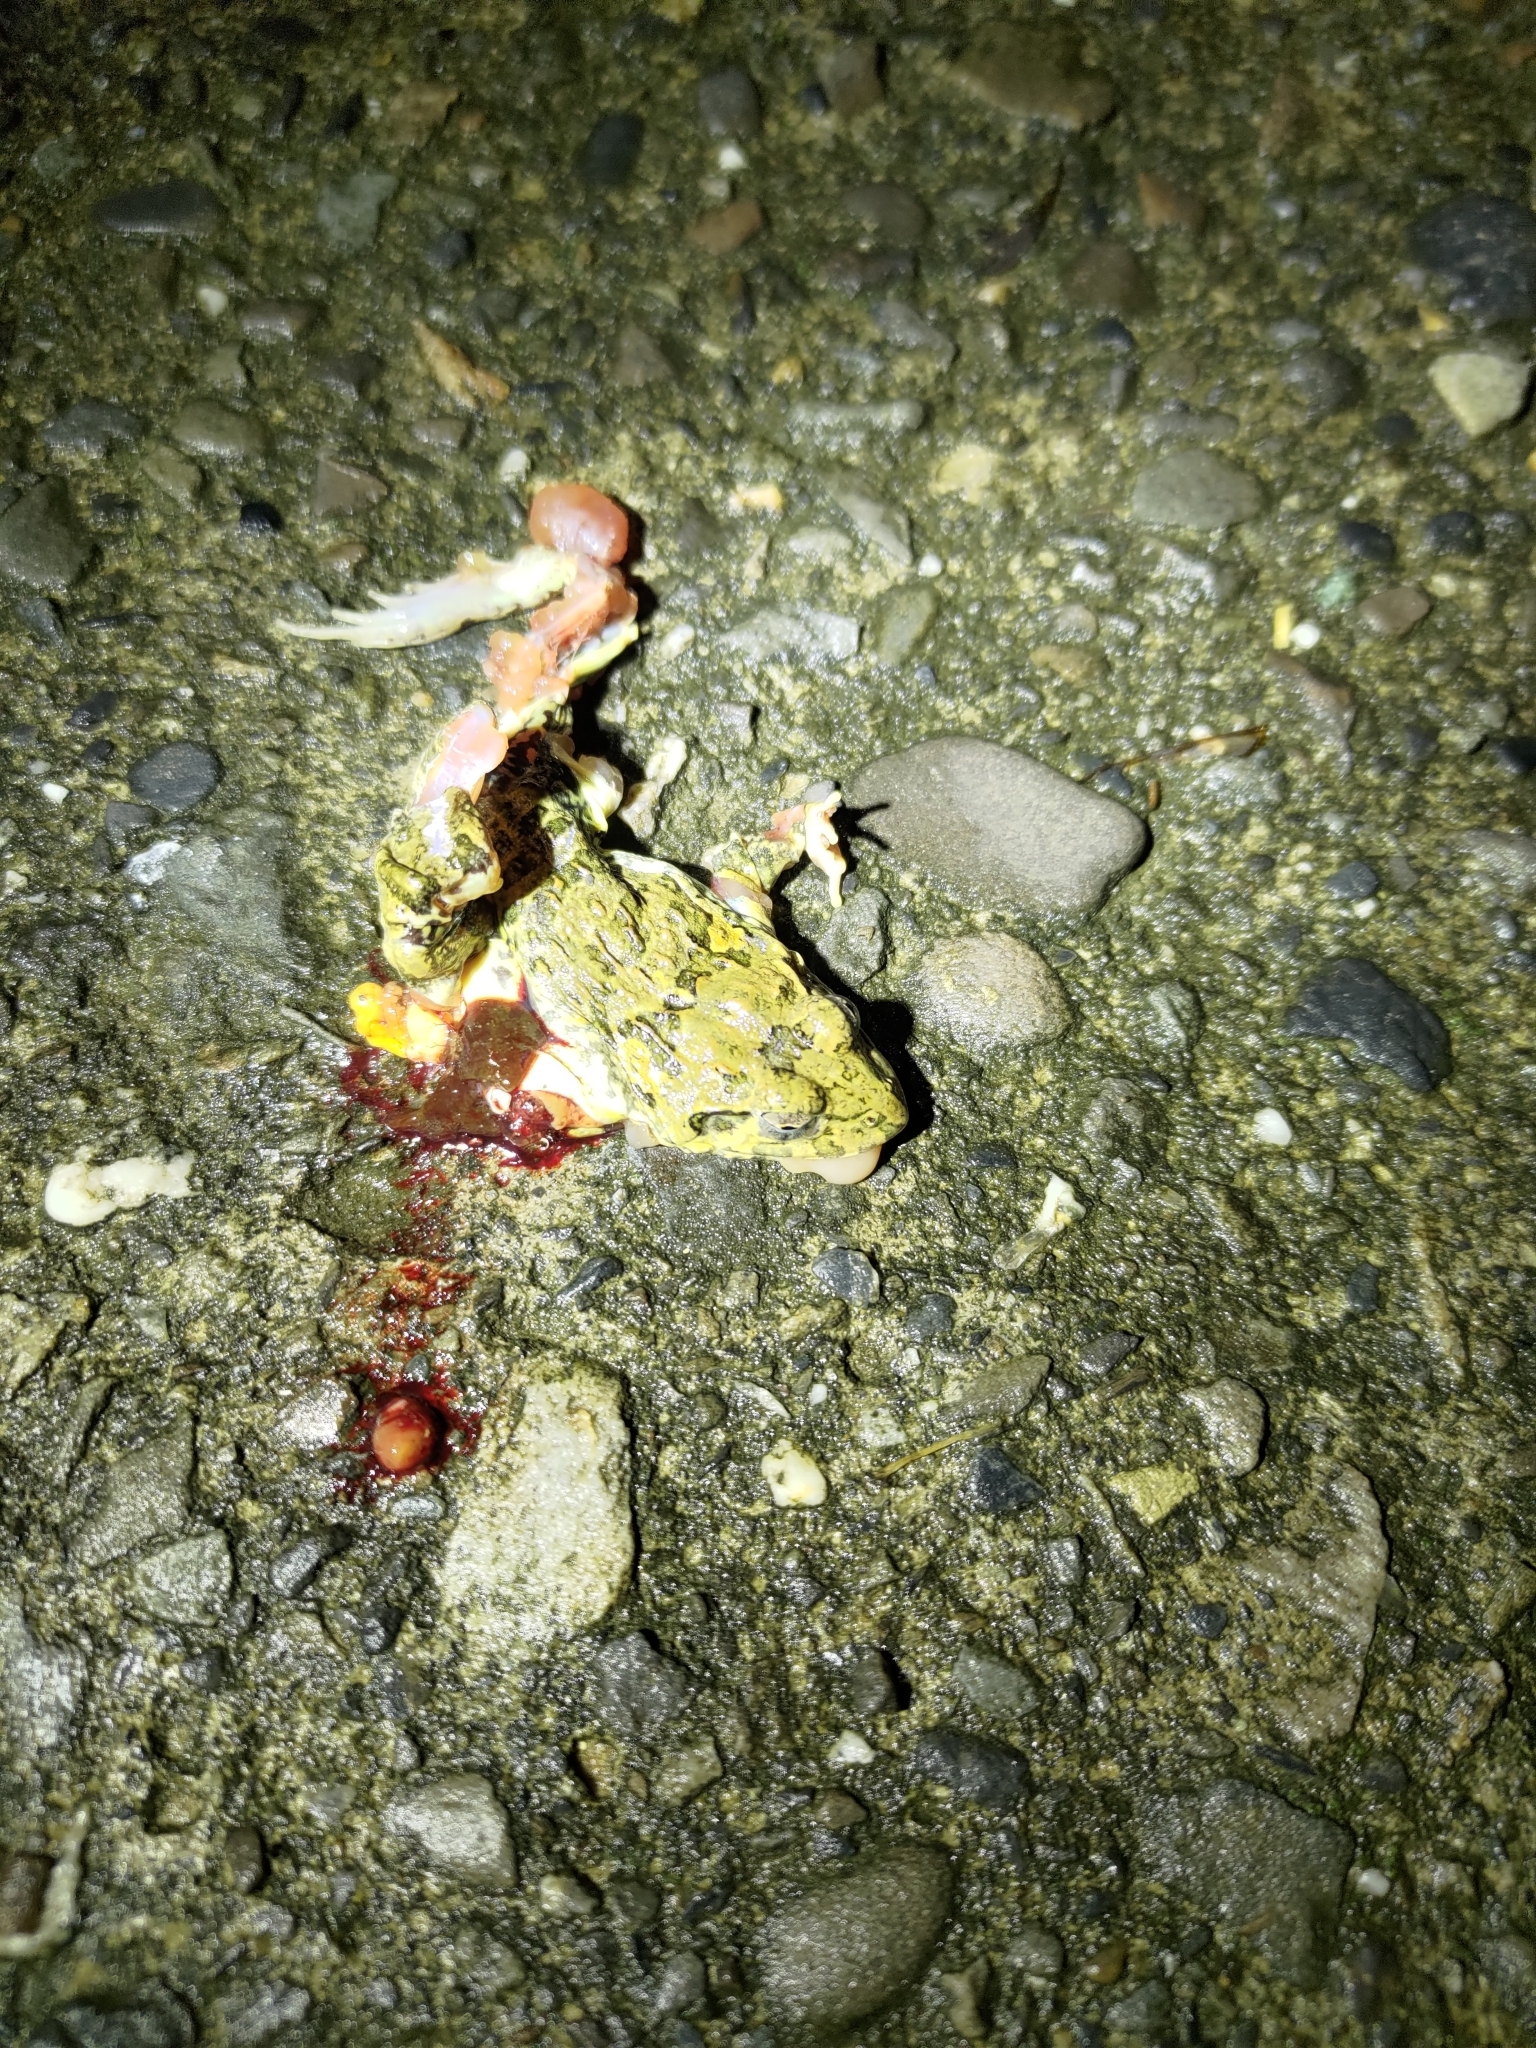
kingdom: Animalia
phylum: Chordata
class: Amphibia
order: Anura
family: Dicroglossidae
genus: Fejervarya
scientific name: Fejervarya limnocharis
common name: Asian grass frog/common pond frog/field frog/grass frog/indian rice frog
